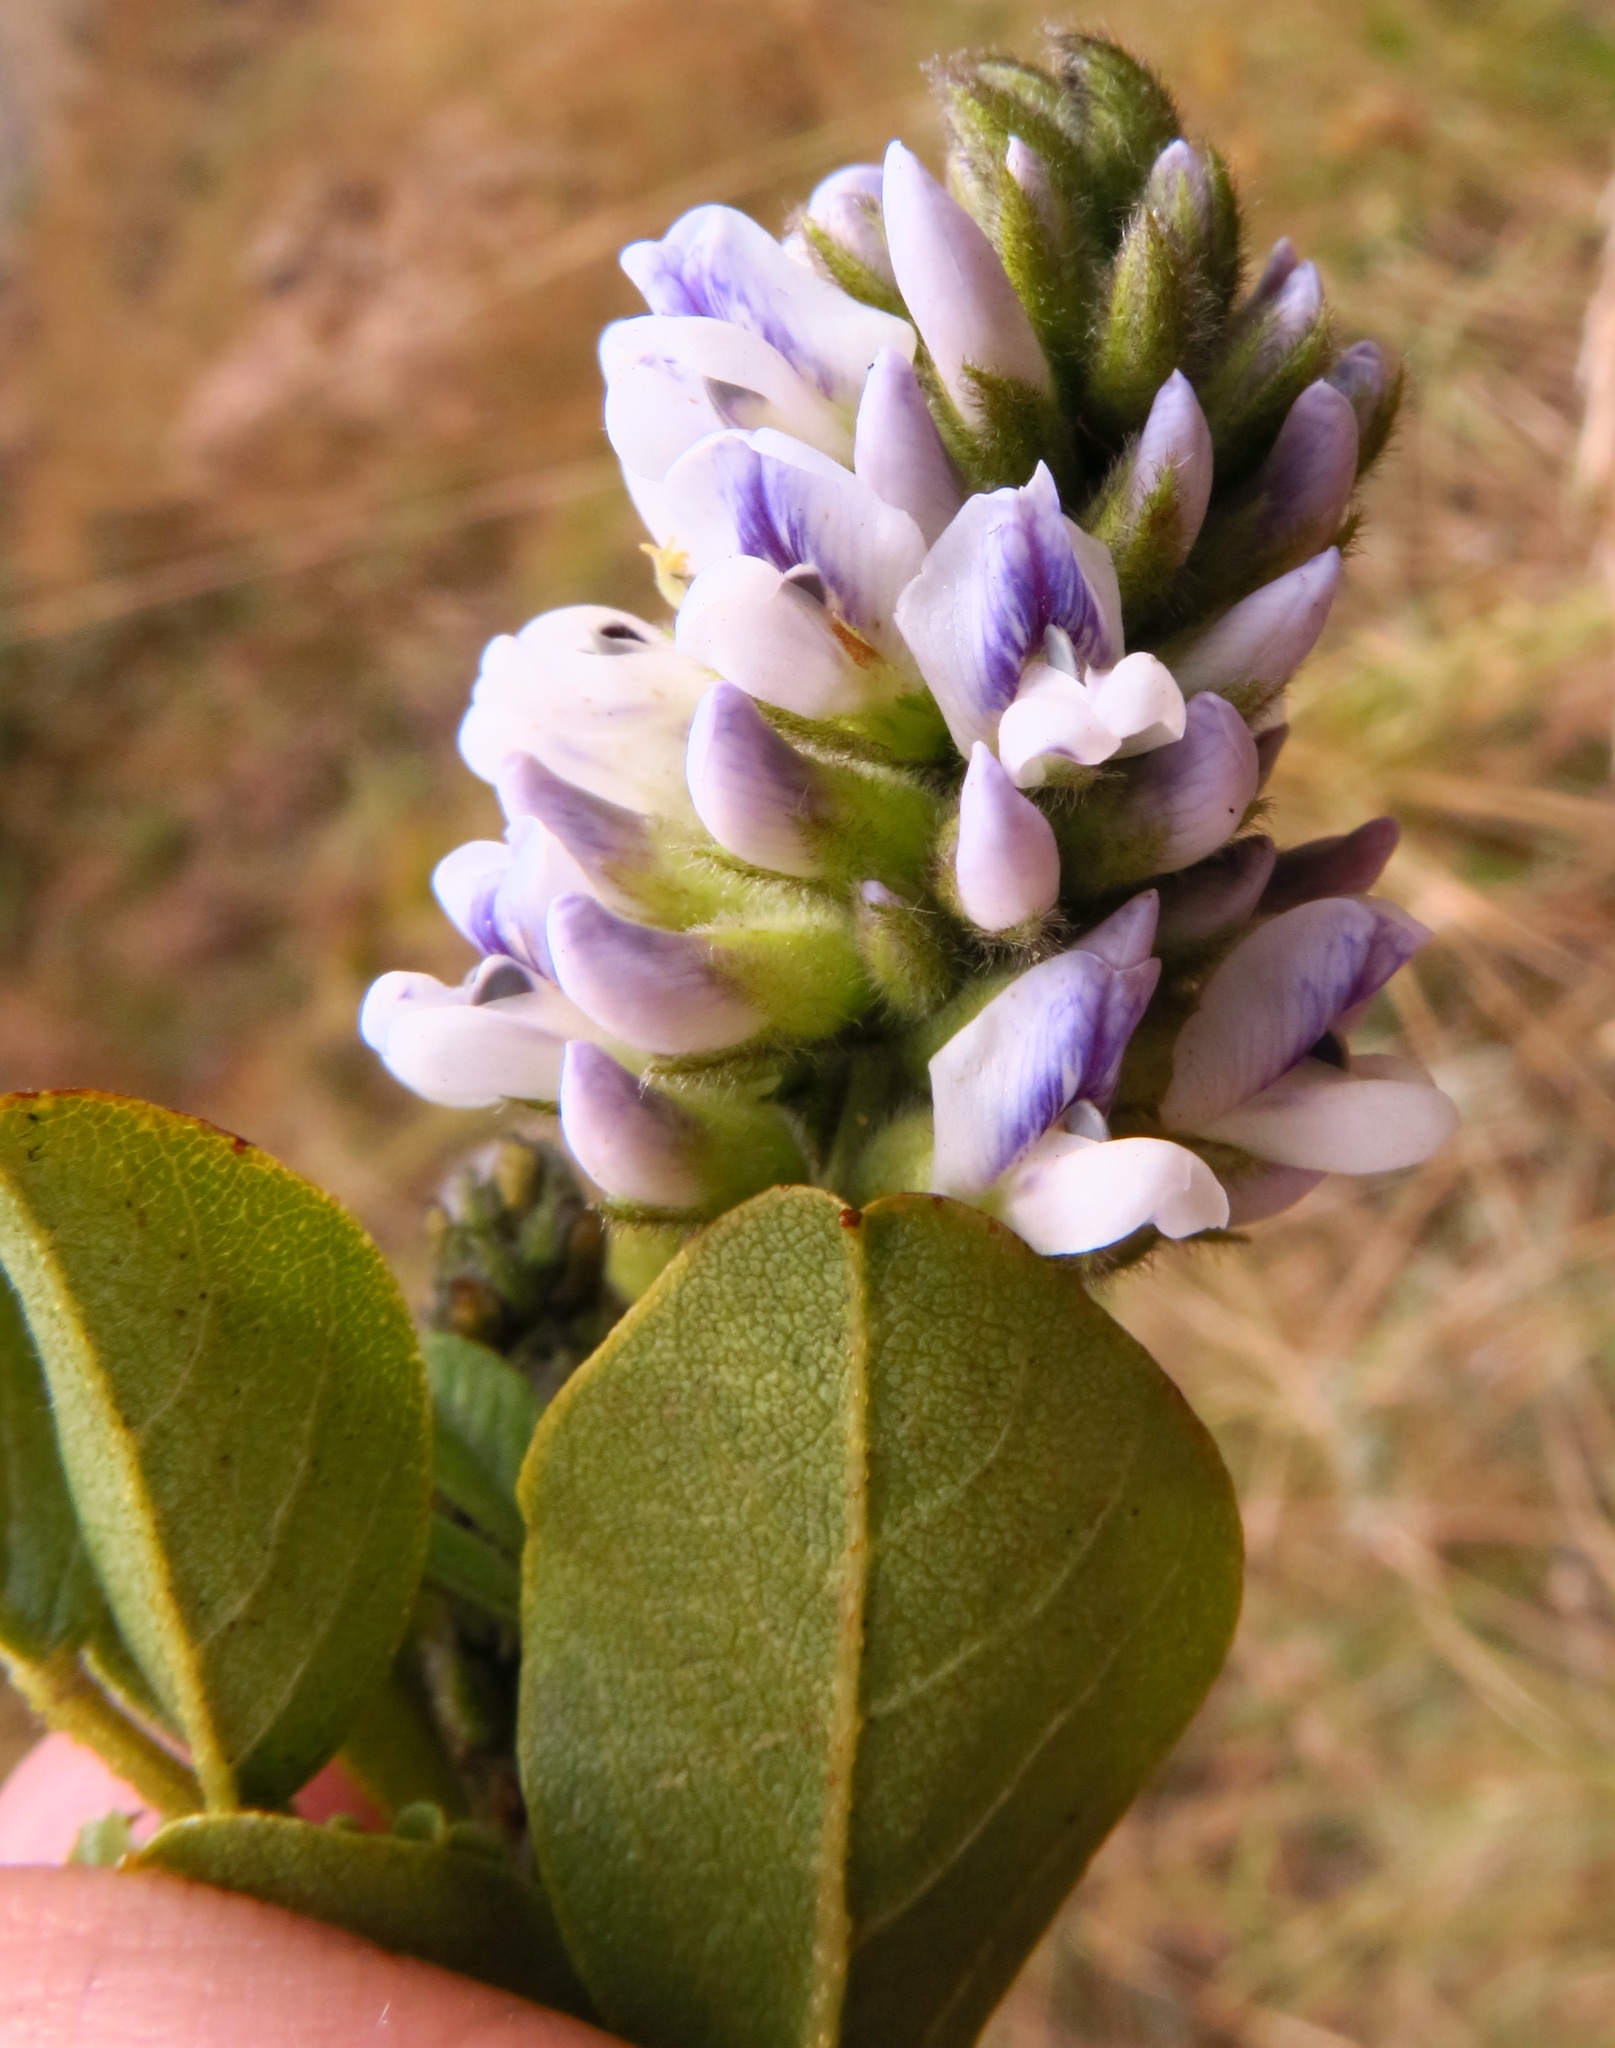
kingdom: Plantae
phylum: Tracheophyta
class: Magnoliopsida
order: Fabales
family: Fabaceae
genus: Psoralea
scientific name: Psoralea fumea
